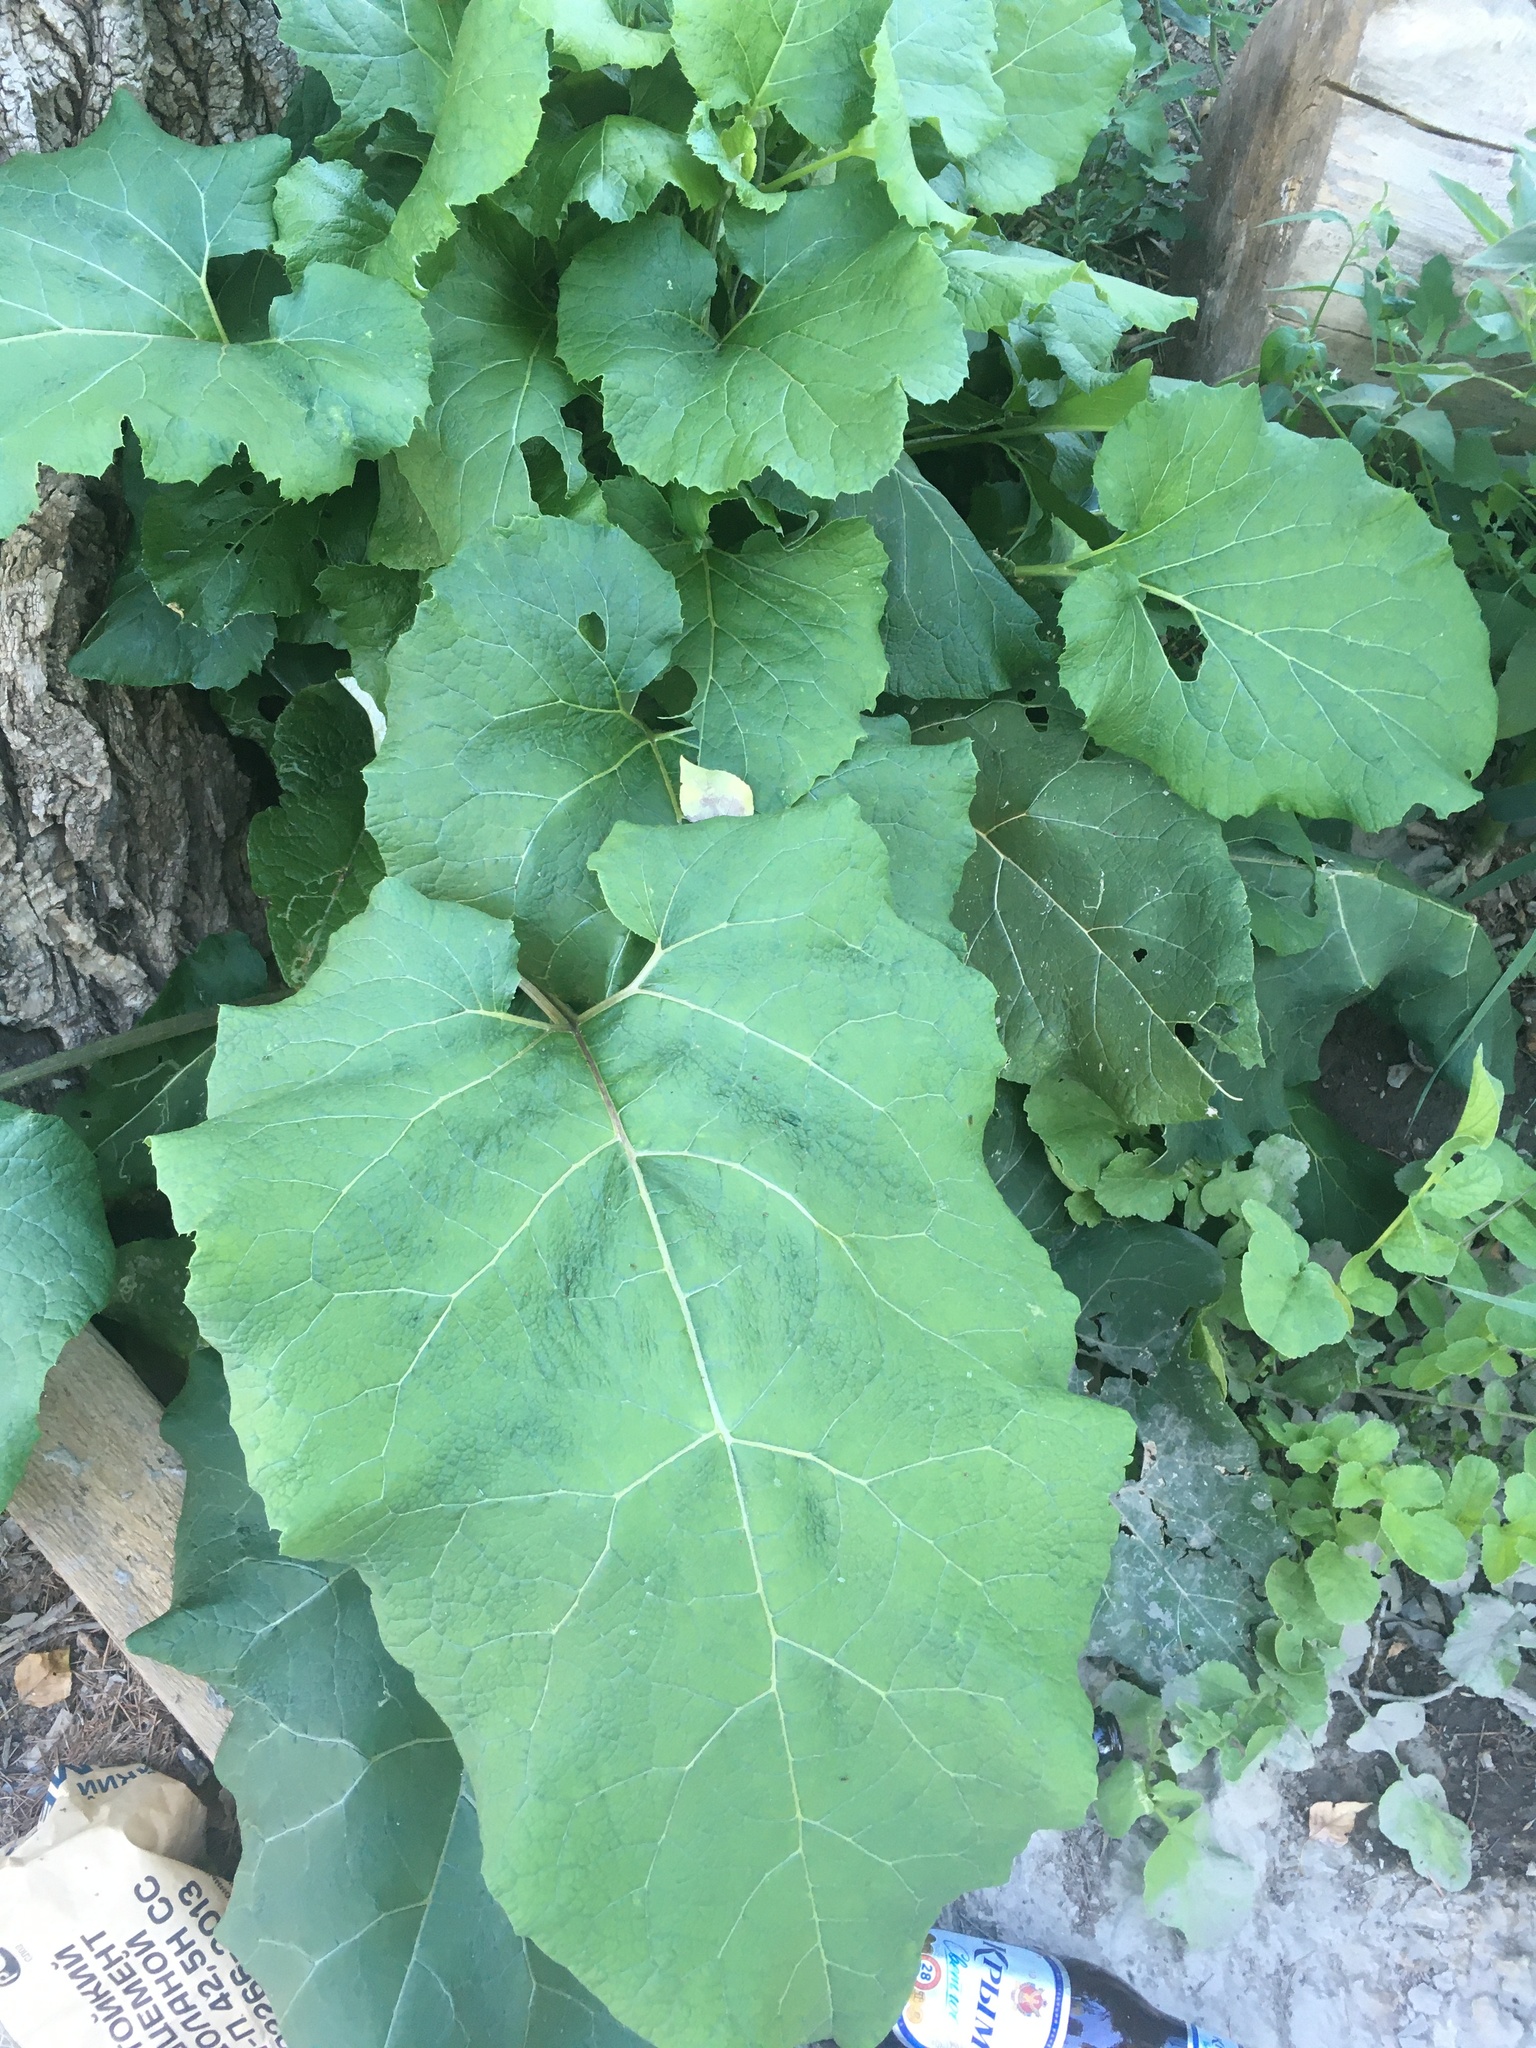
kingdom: Plantae
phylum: Tracheophyta
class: Magnoliopsida
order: Asterales
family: Asteraceae
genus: Arctium
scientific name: Arctium
